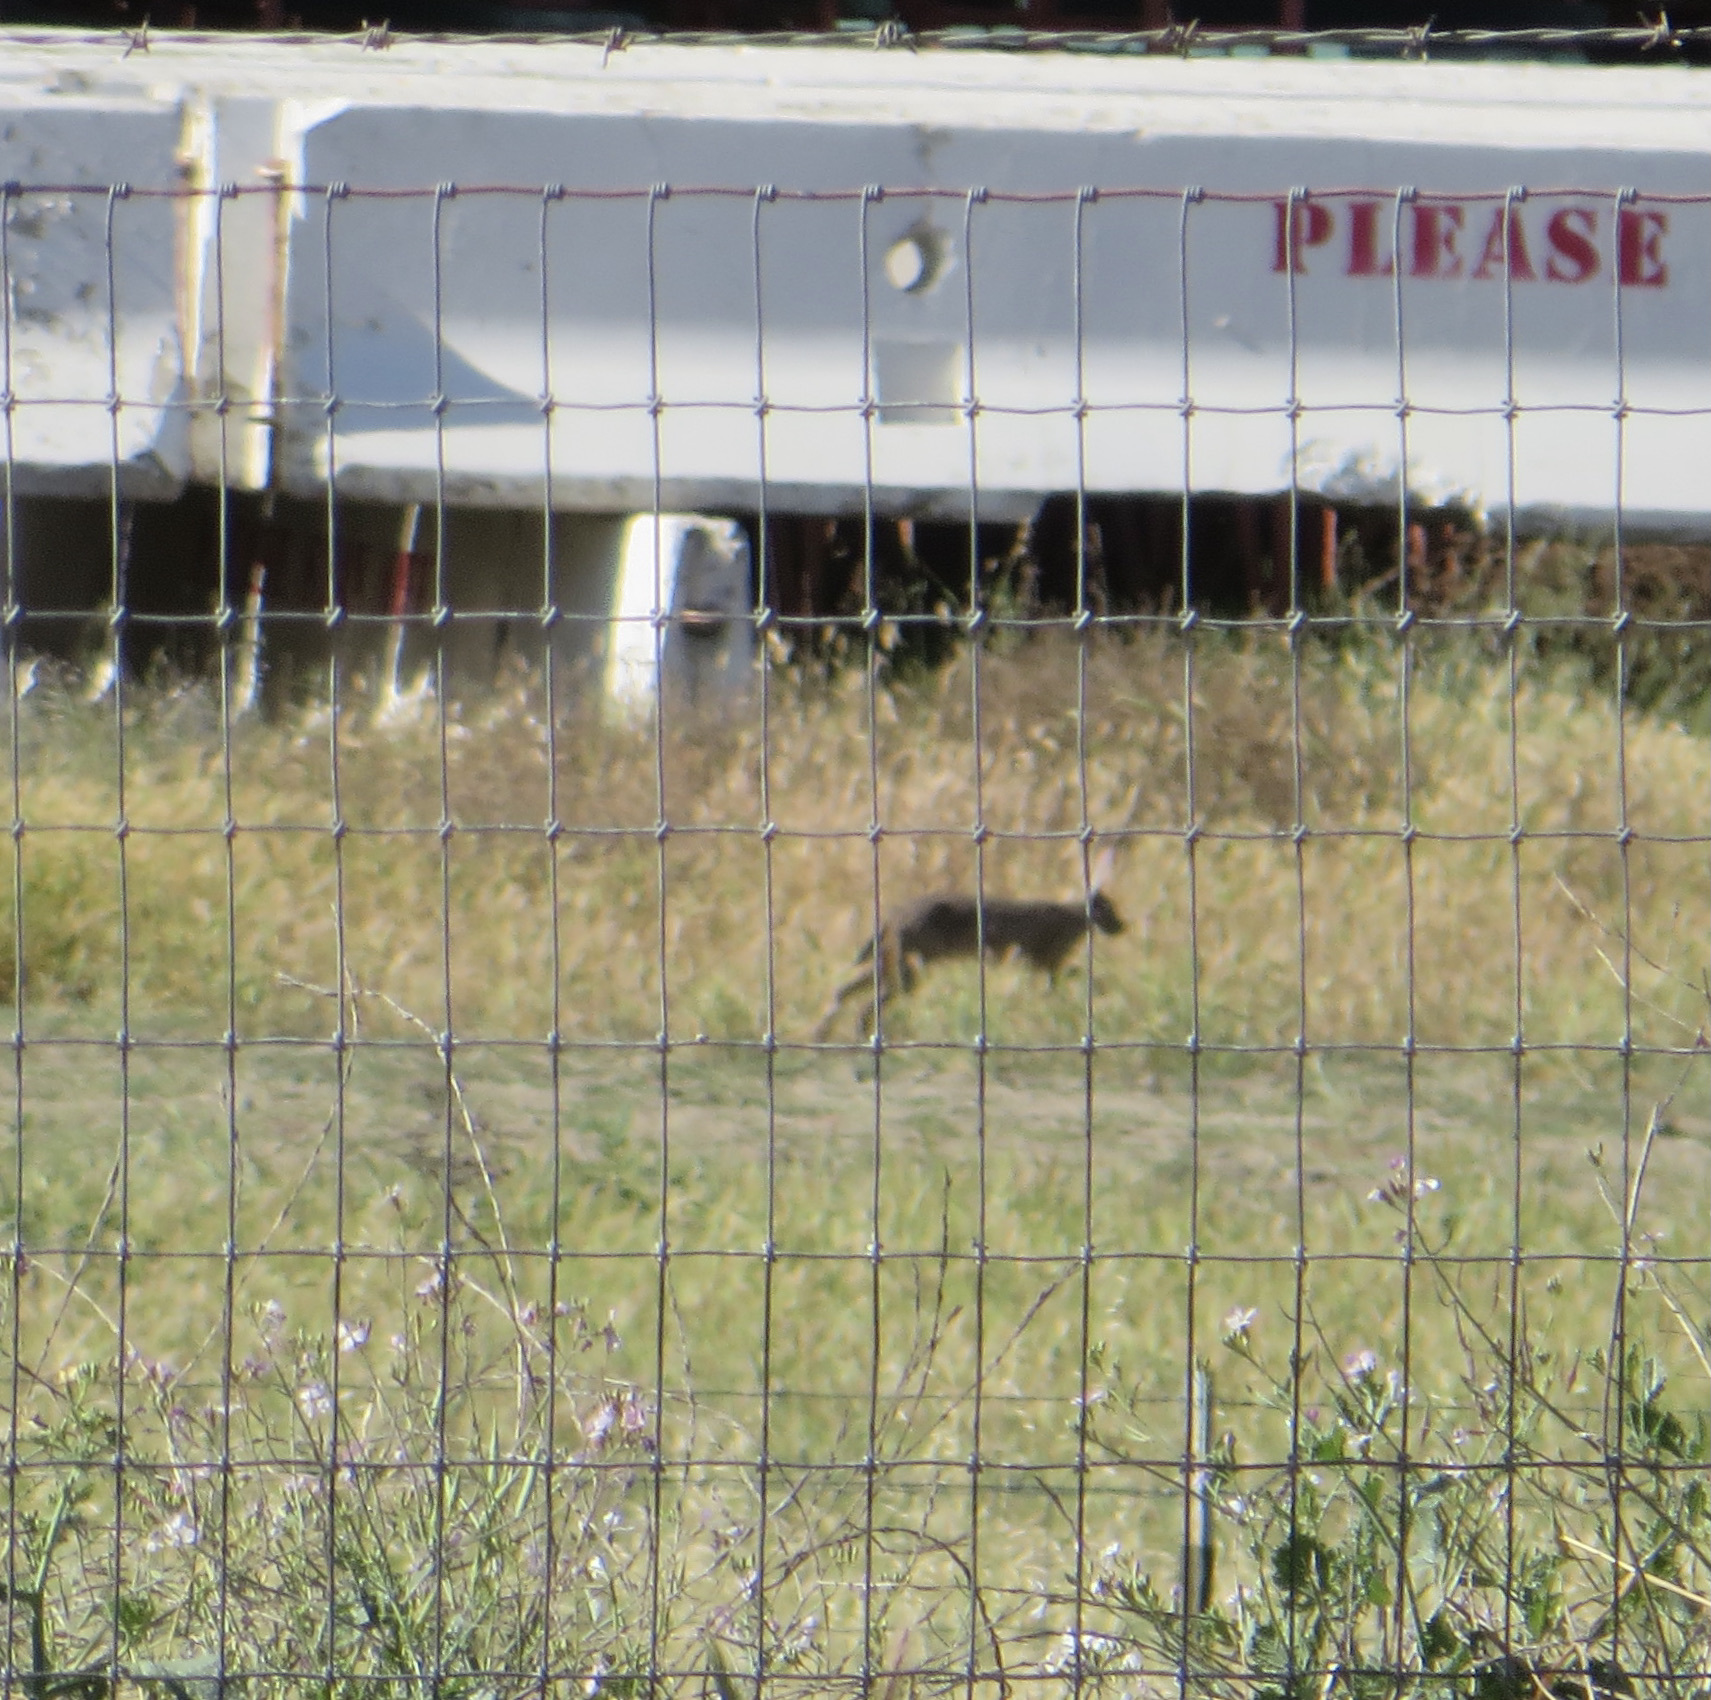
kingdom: Animalia
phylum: Chordata
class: Mammalia
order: Lagomorpha
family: Leporidae
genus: Lepus
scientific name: Lepus californicus
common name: Black-tailed jackrabbit
